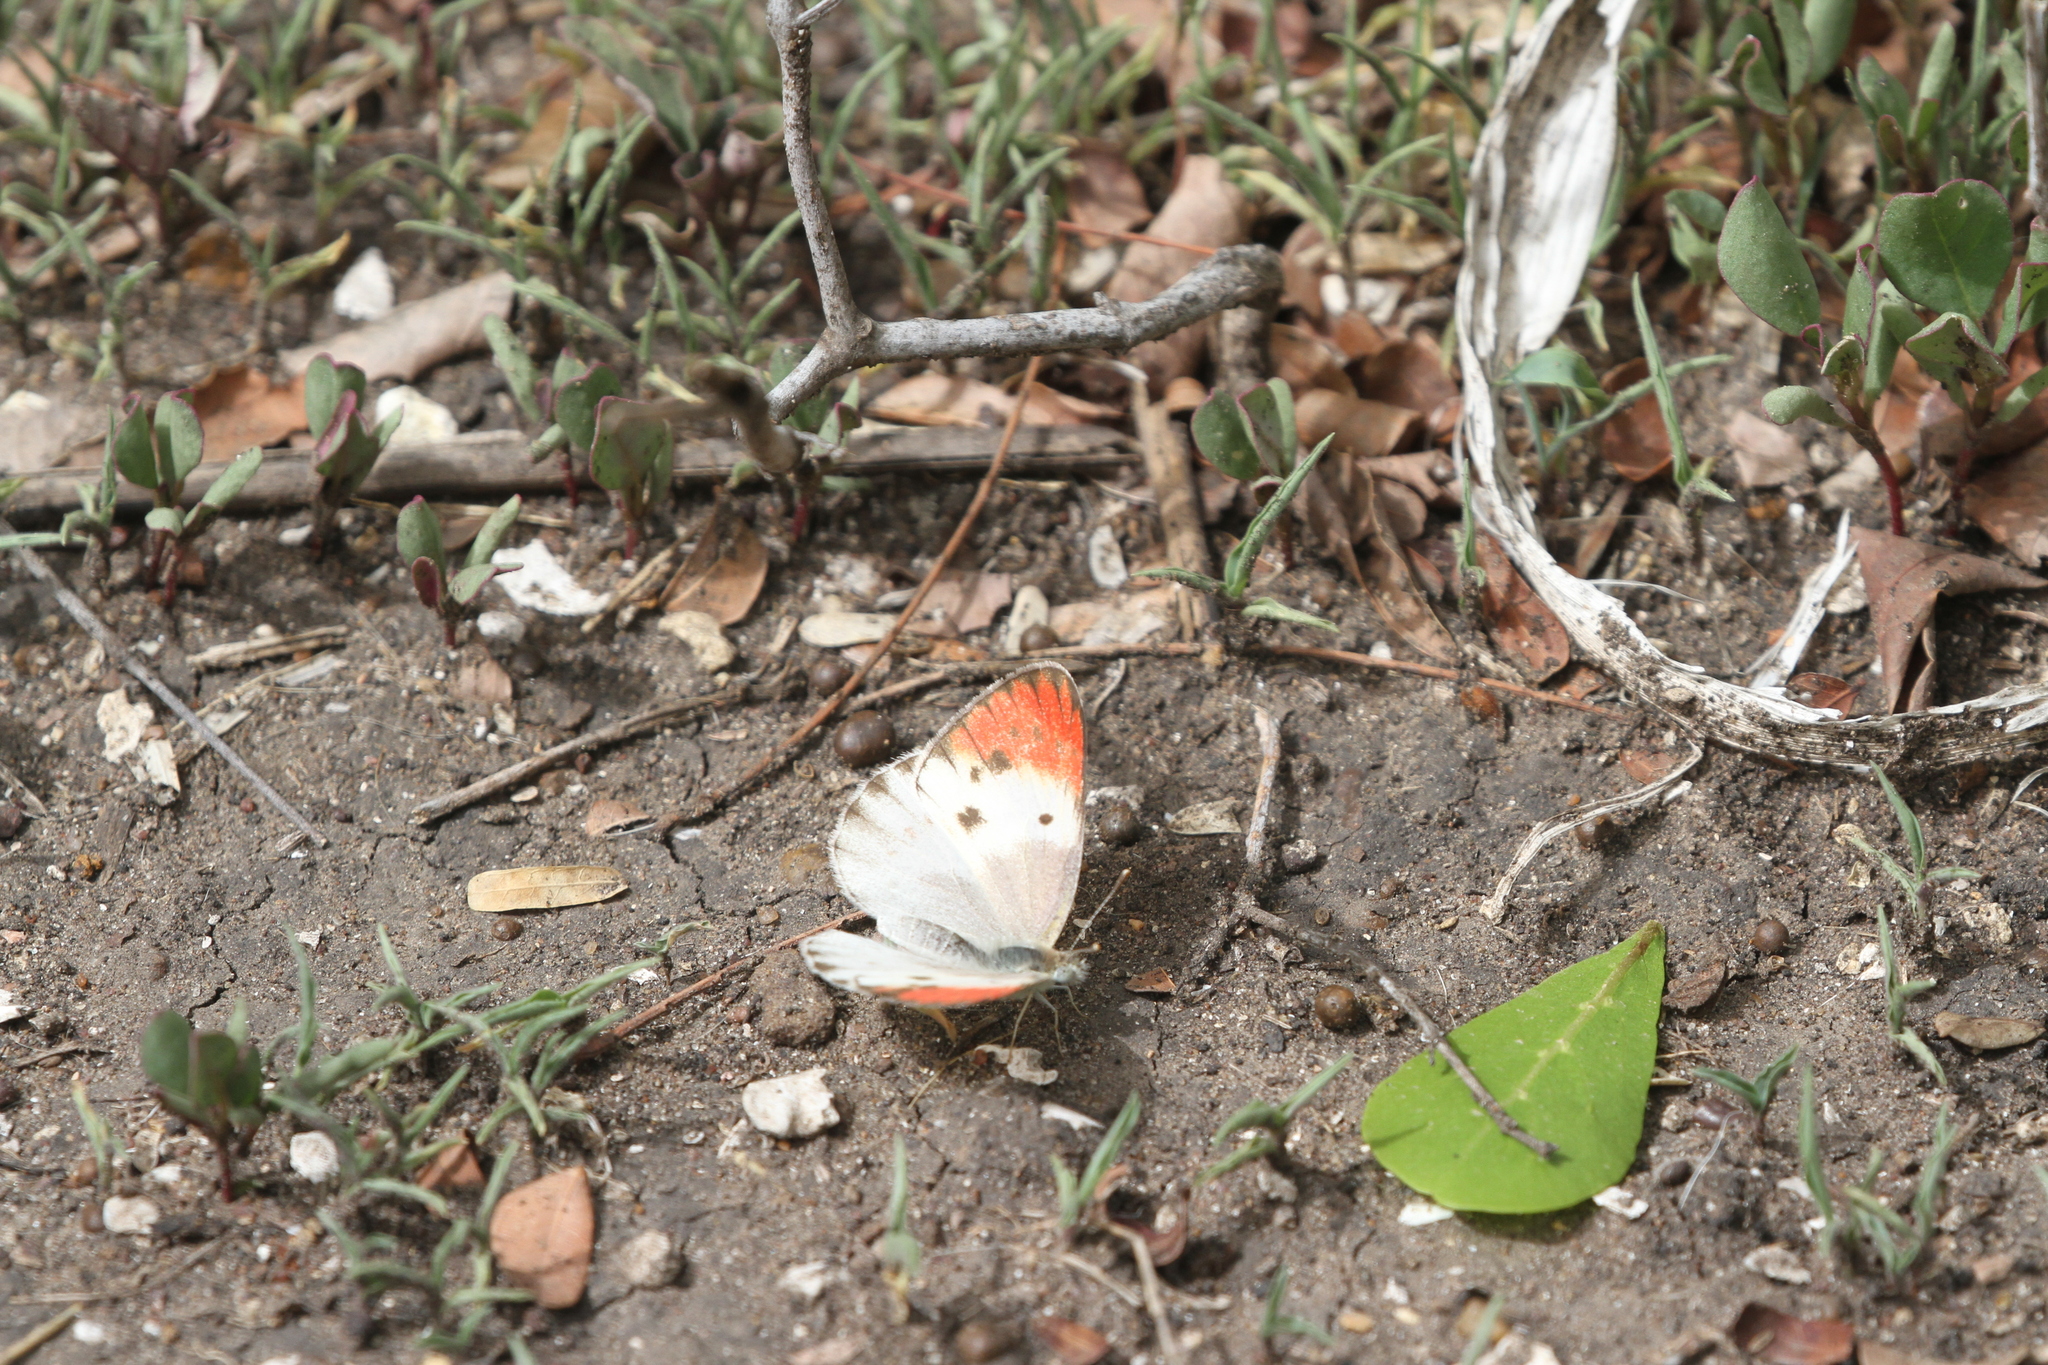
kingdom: Animalia
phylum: Arthropoda
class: Insecta
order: Lepidoptera
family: Pieridae
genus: Colotis
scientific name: Colotis annae
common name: Scarlet tip
